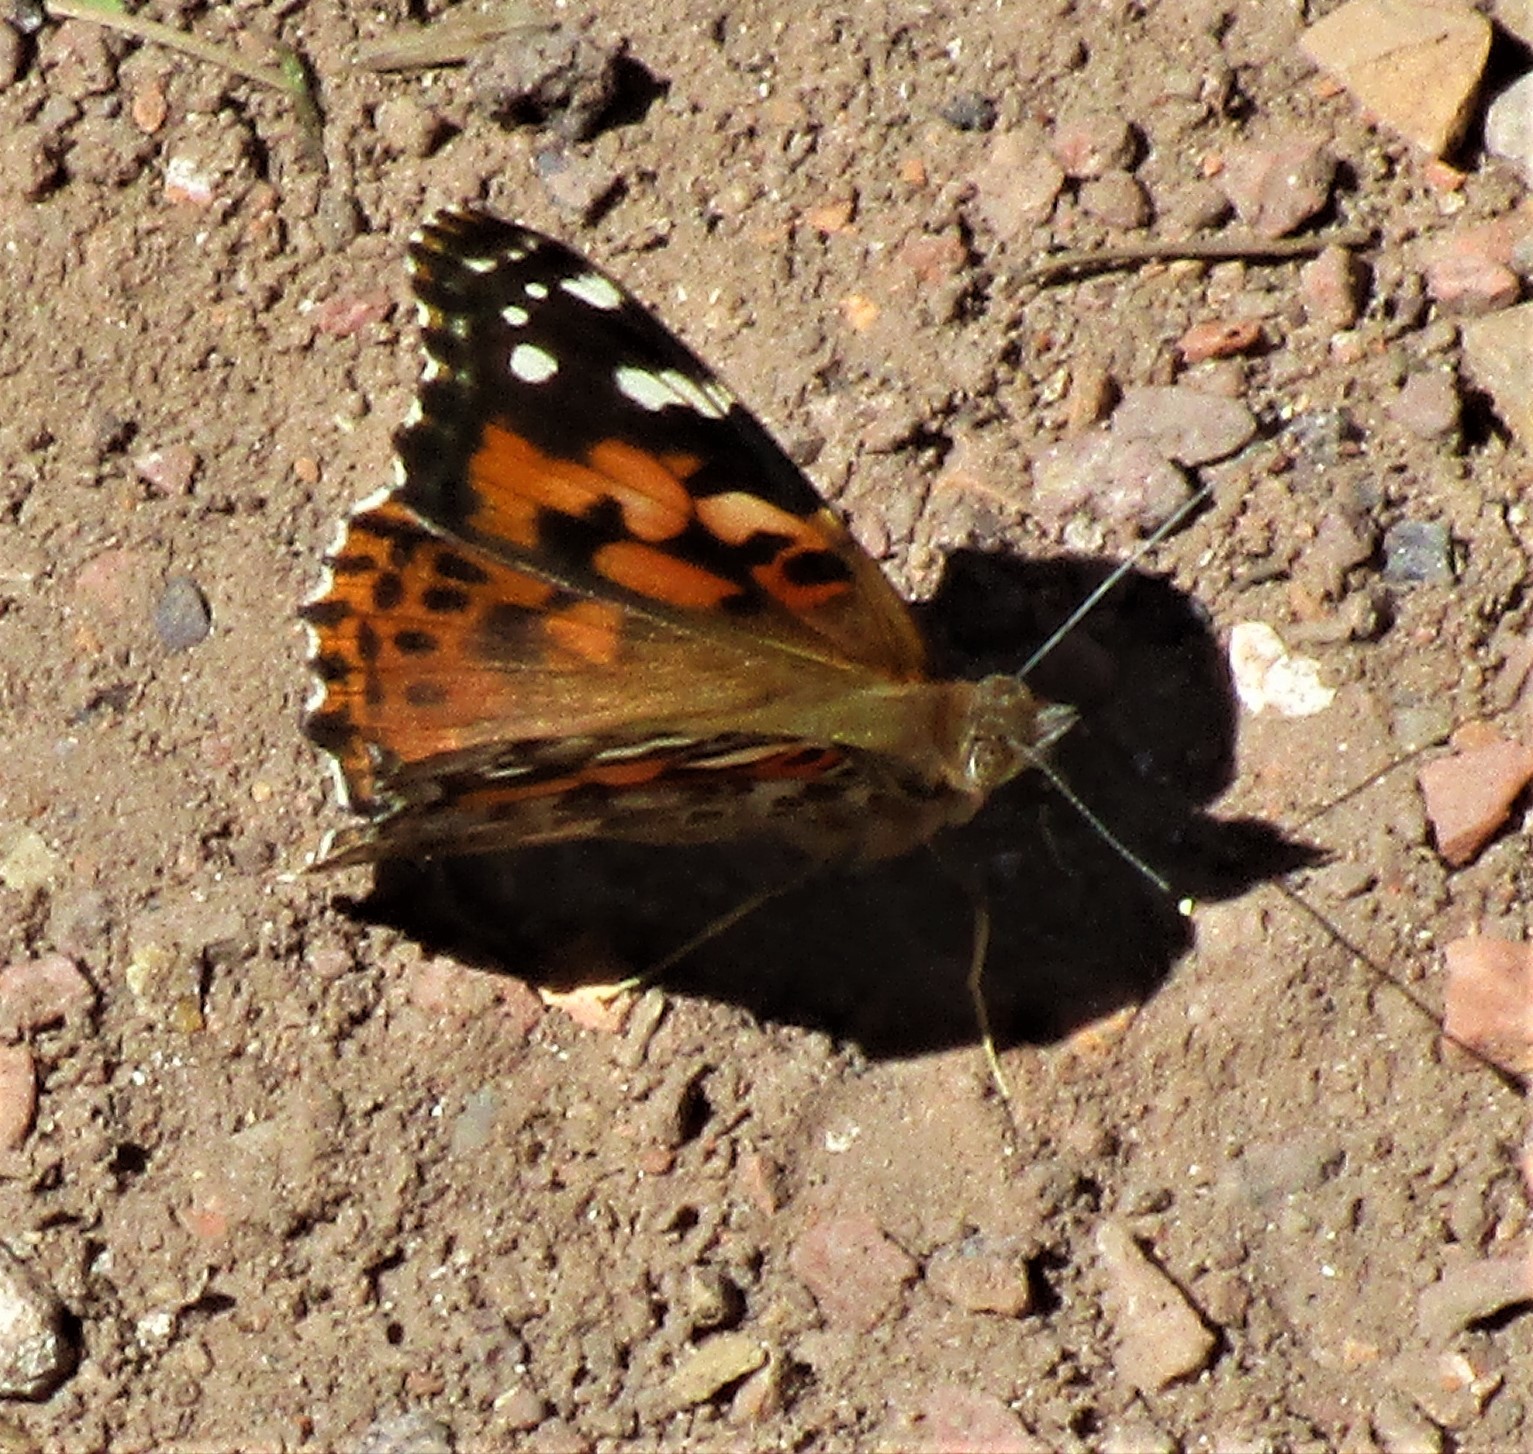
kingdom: Animalia
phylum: Arthropoda
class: Insecta
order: Lepidoptera
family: Nymphalidae
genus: Vanessa
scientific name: Vanessa cardui
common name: Painted lady
